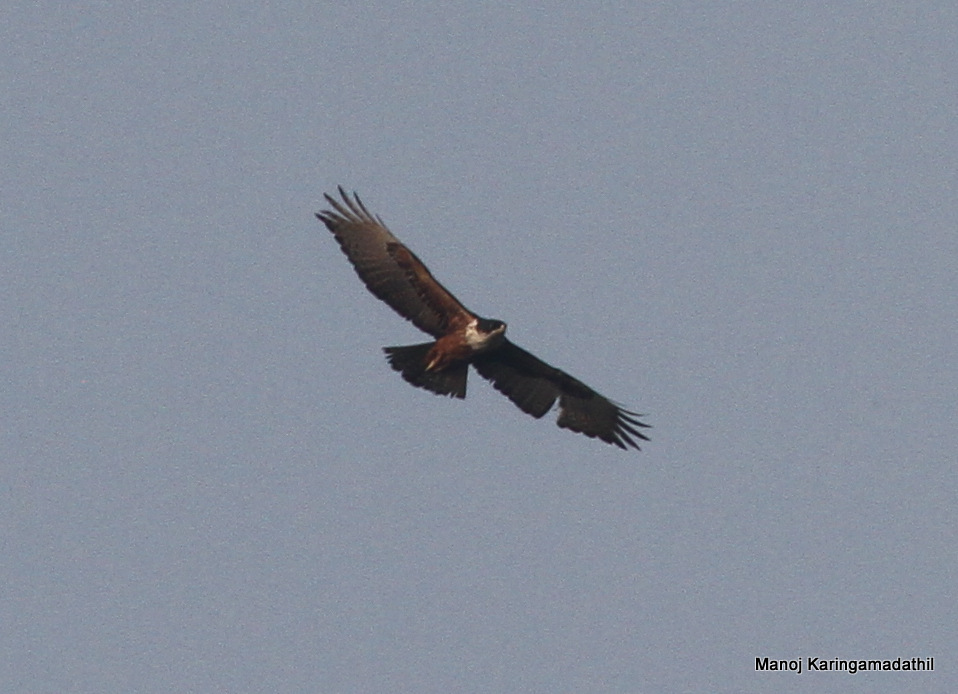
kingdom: Animalia
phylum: Chordata
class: Aves
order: Accipitriformes
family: Accipitridae
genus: Lophotriorchis
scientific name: Lophotriorchis kienerii
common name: Rufous-bellied eagle
